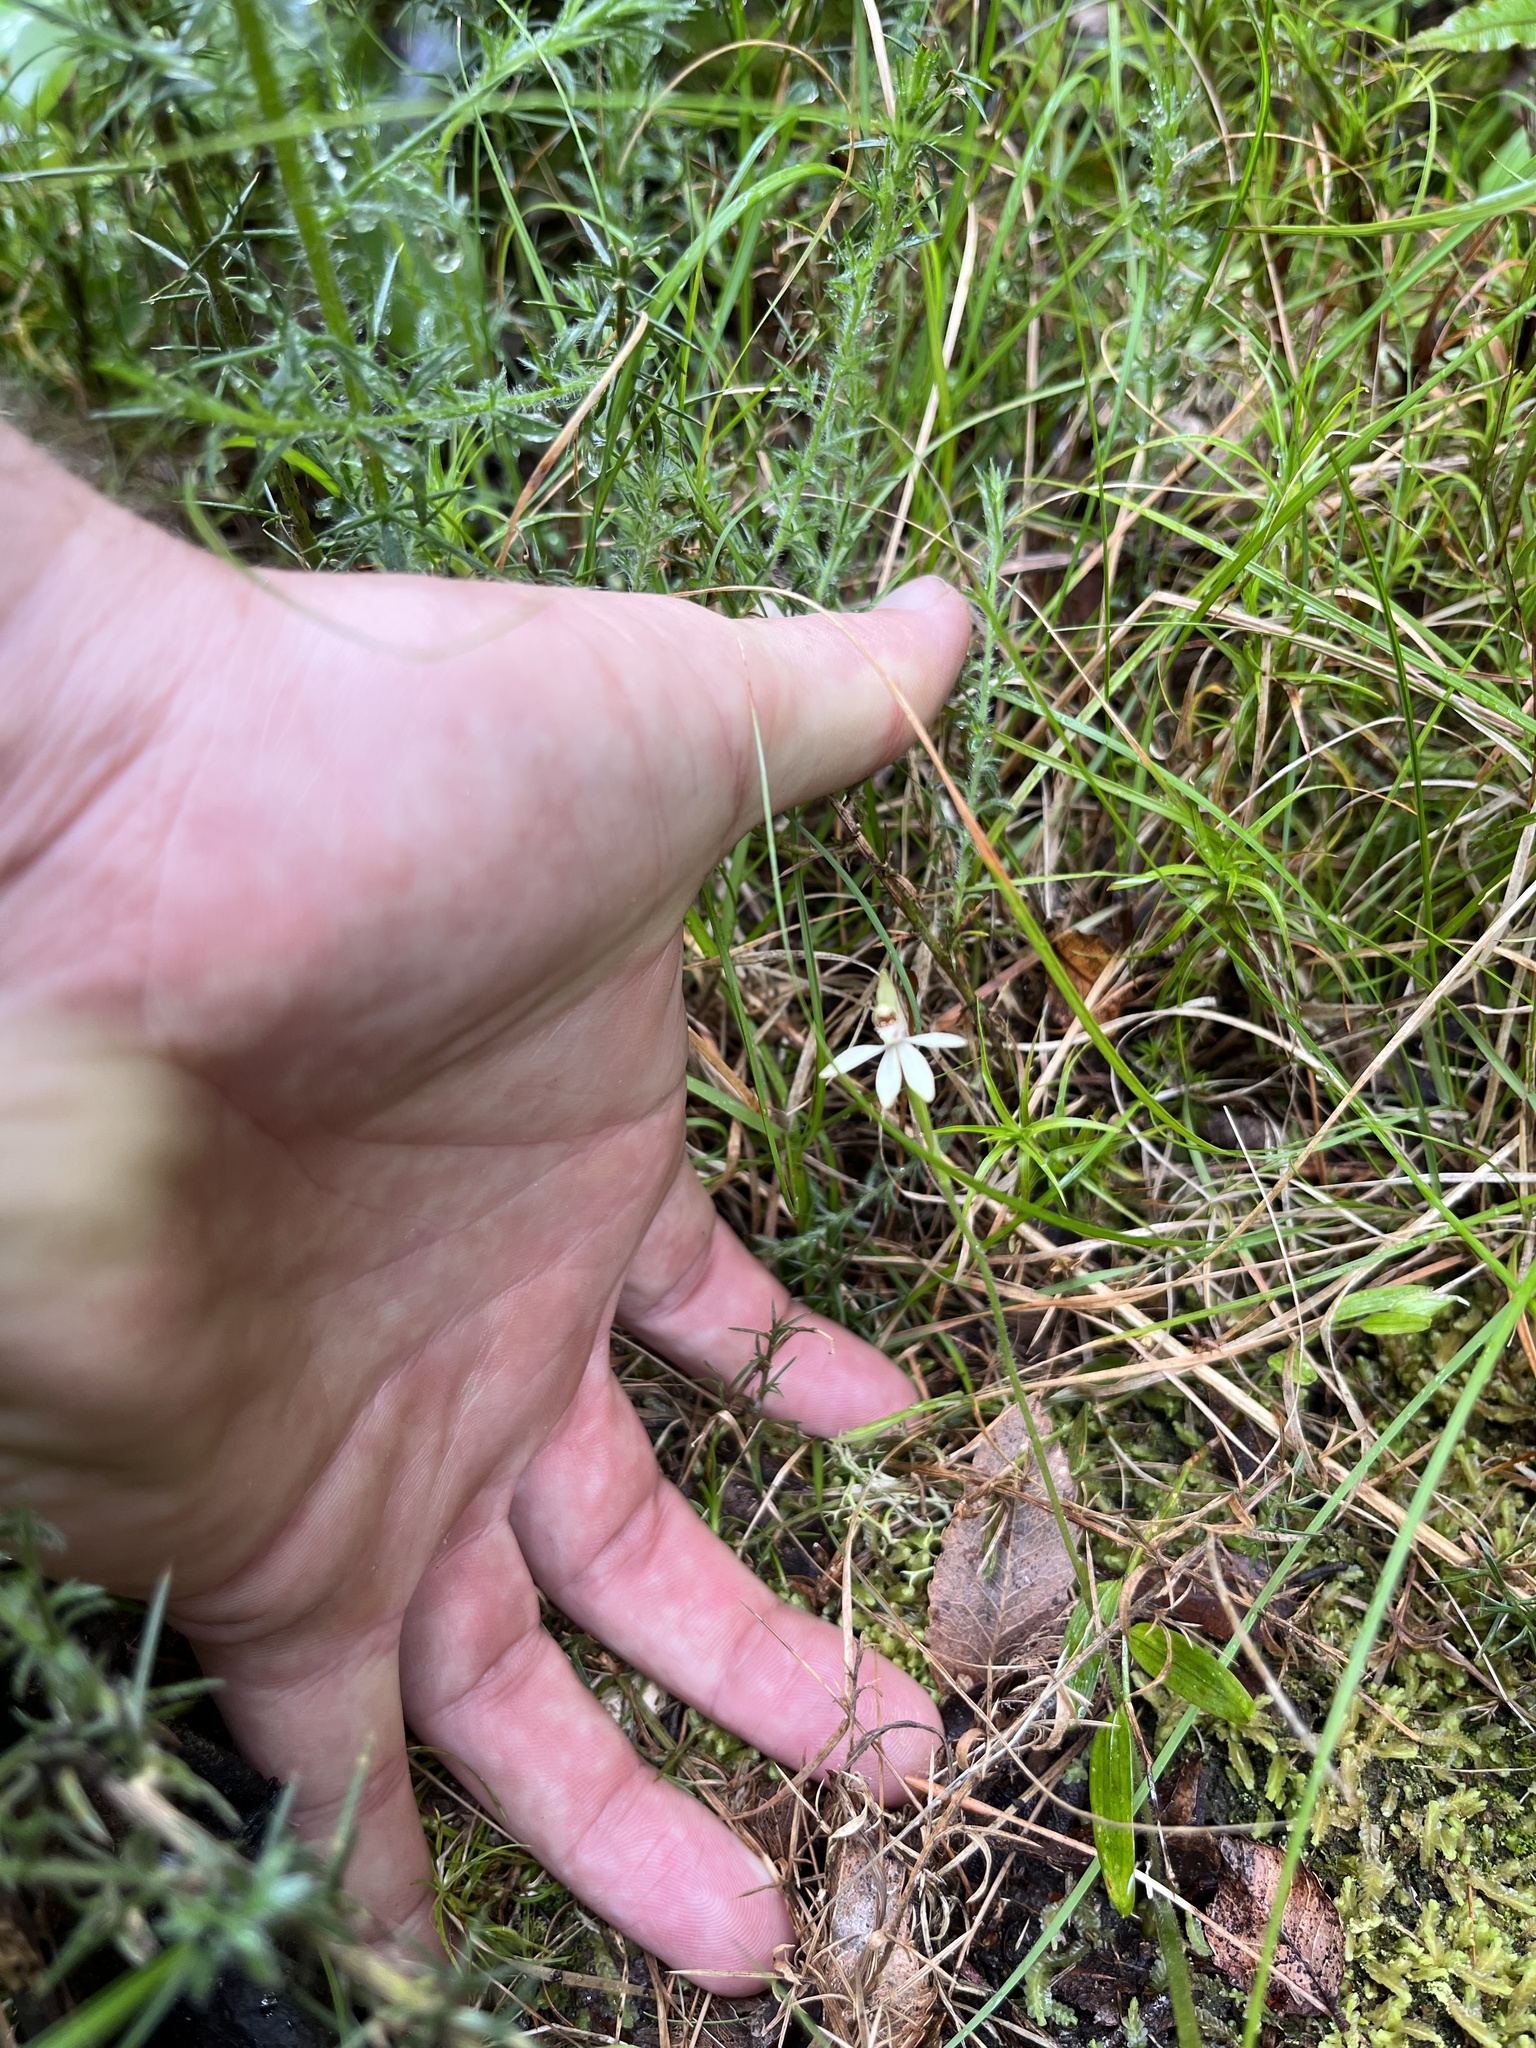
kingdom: Plantae
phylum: Tracheophyta
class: Liliopsida
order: Asparagales
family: Orchidaceae
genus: Caladenia
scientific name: Caladenia chlorostyla
